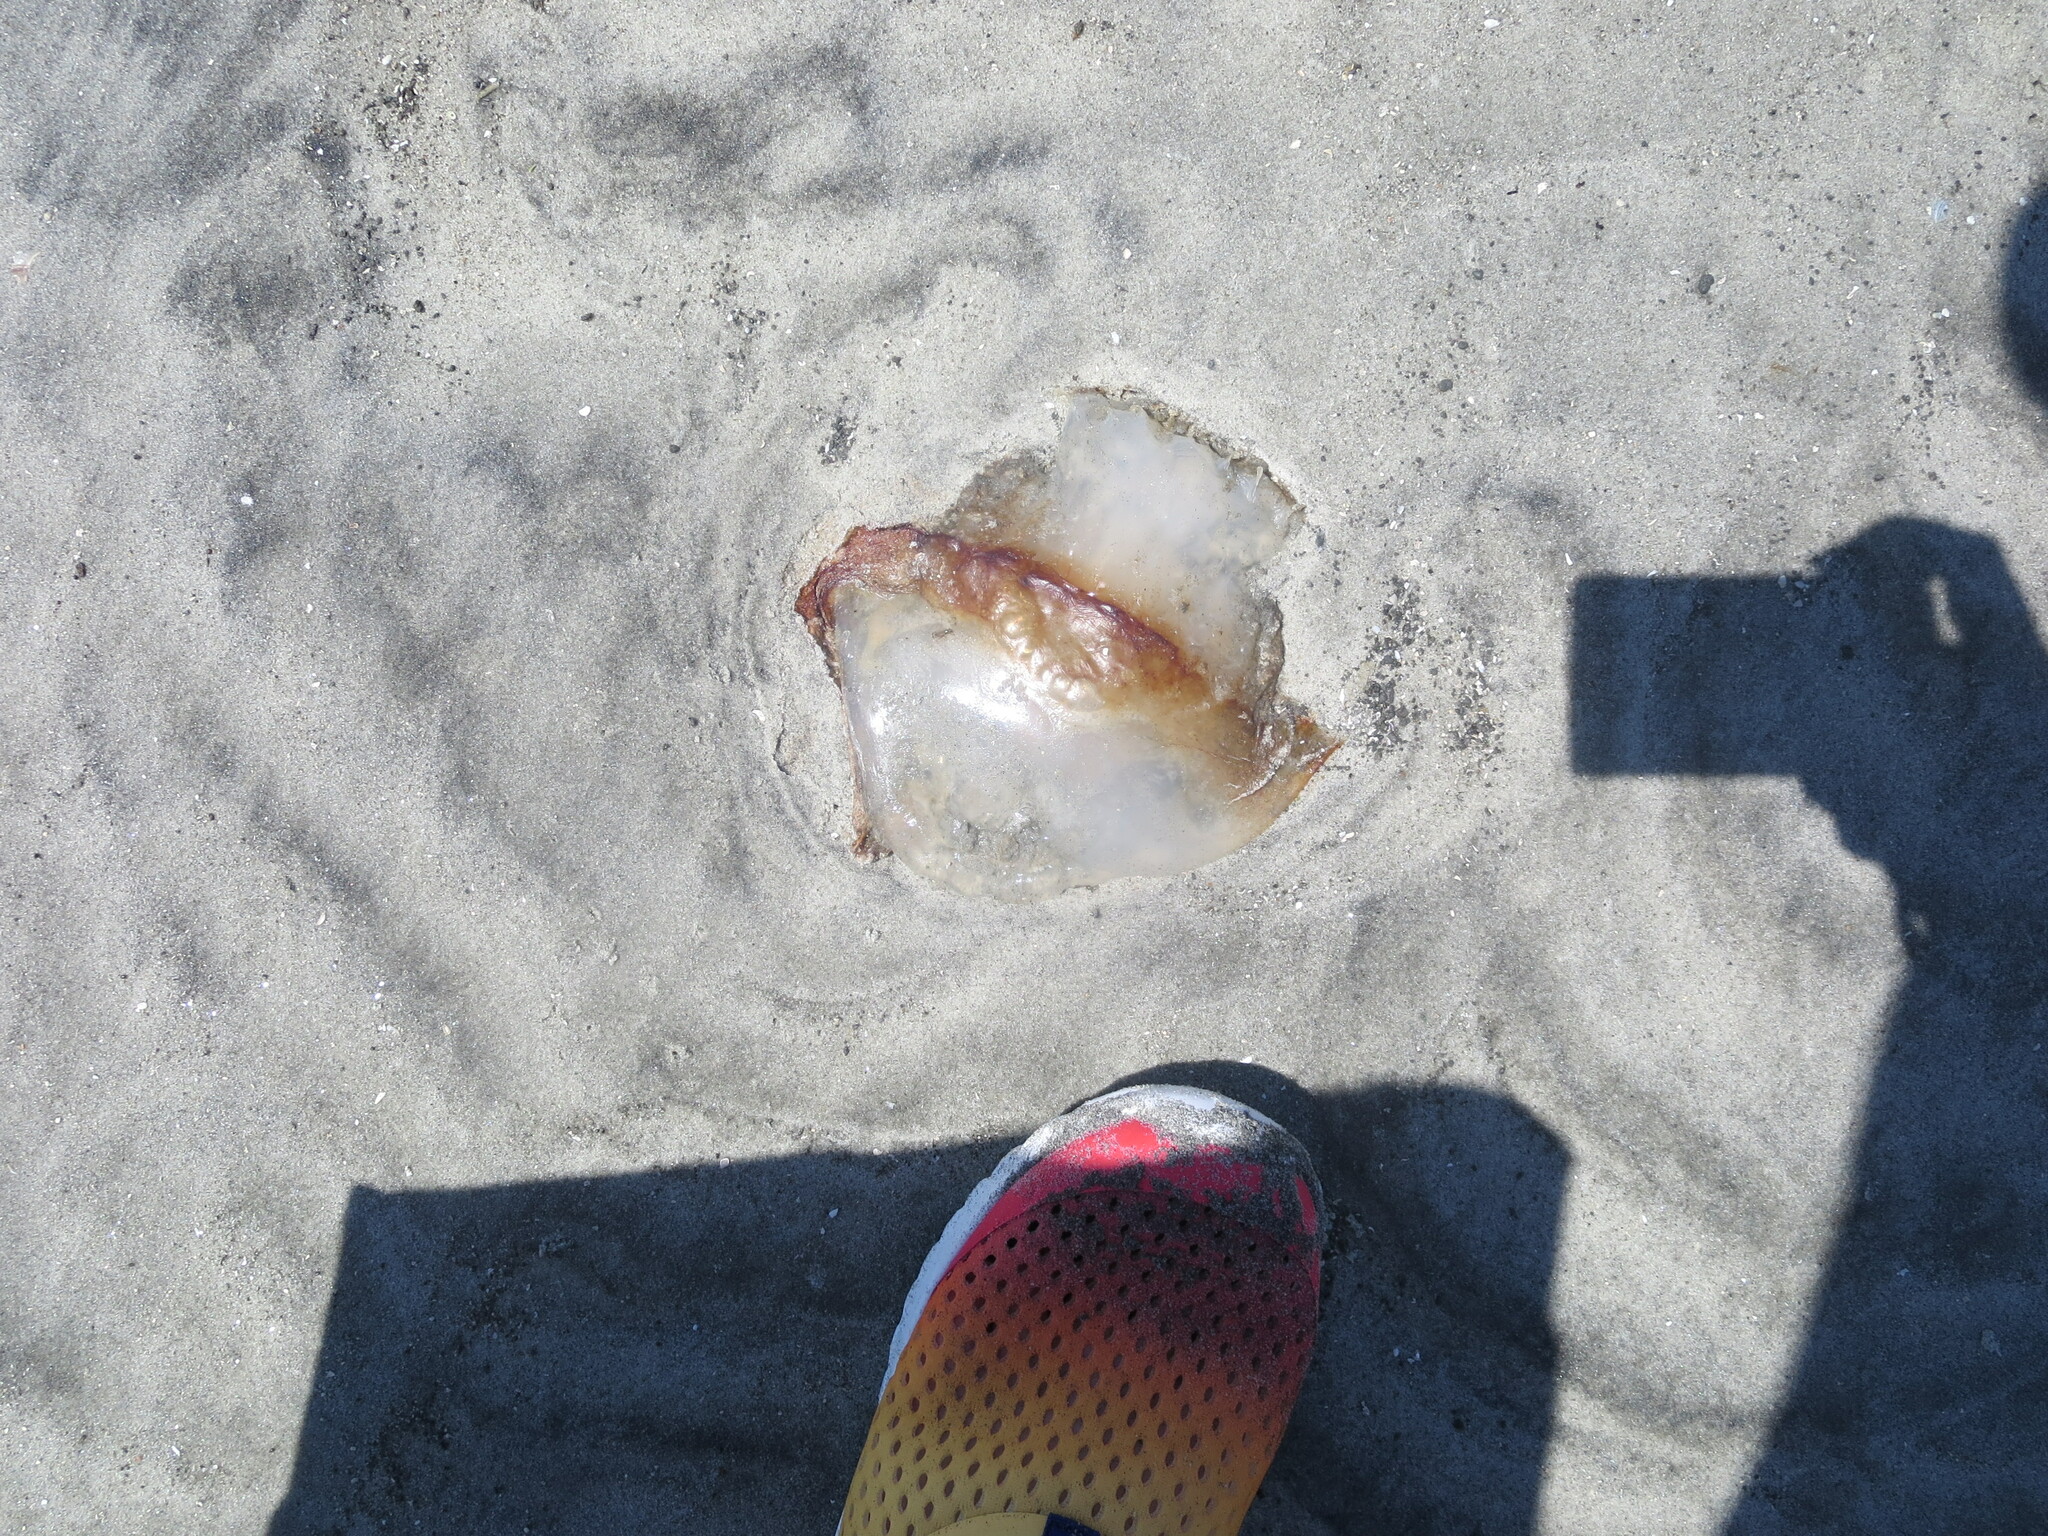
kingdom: Animalia
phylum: Cnidaria
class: Scyphozoa
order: Rhizostomeae
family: Stomolophidae
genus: Stomolophus
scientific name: Stomolophus meleagris
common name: Cabbagehead
